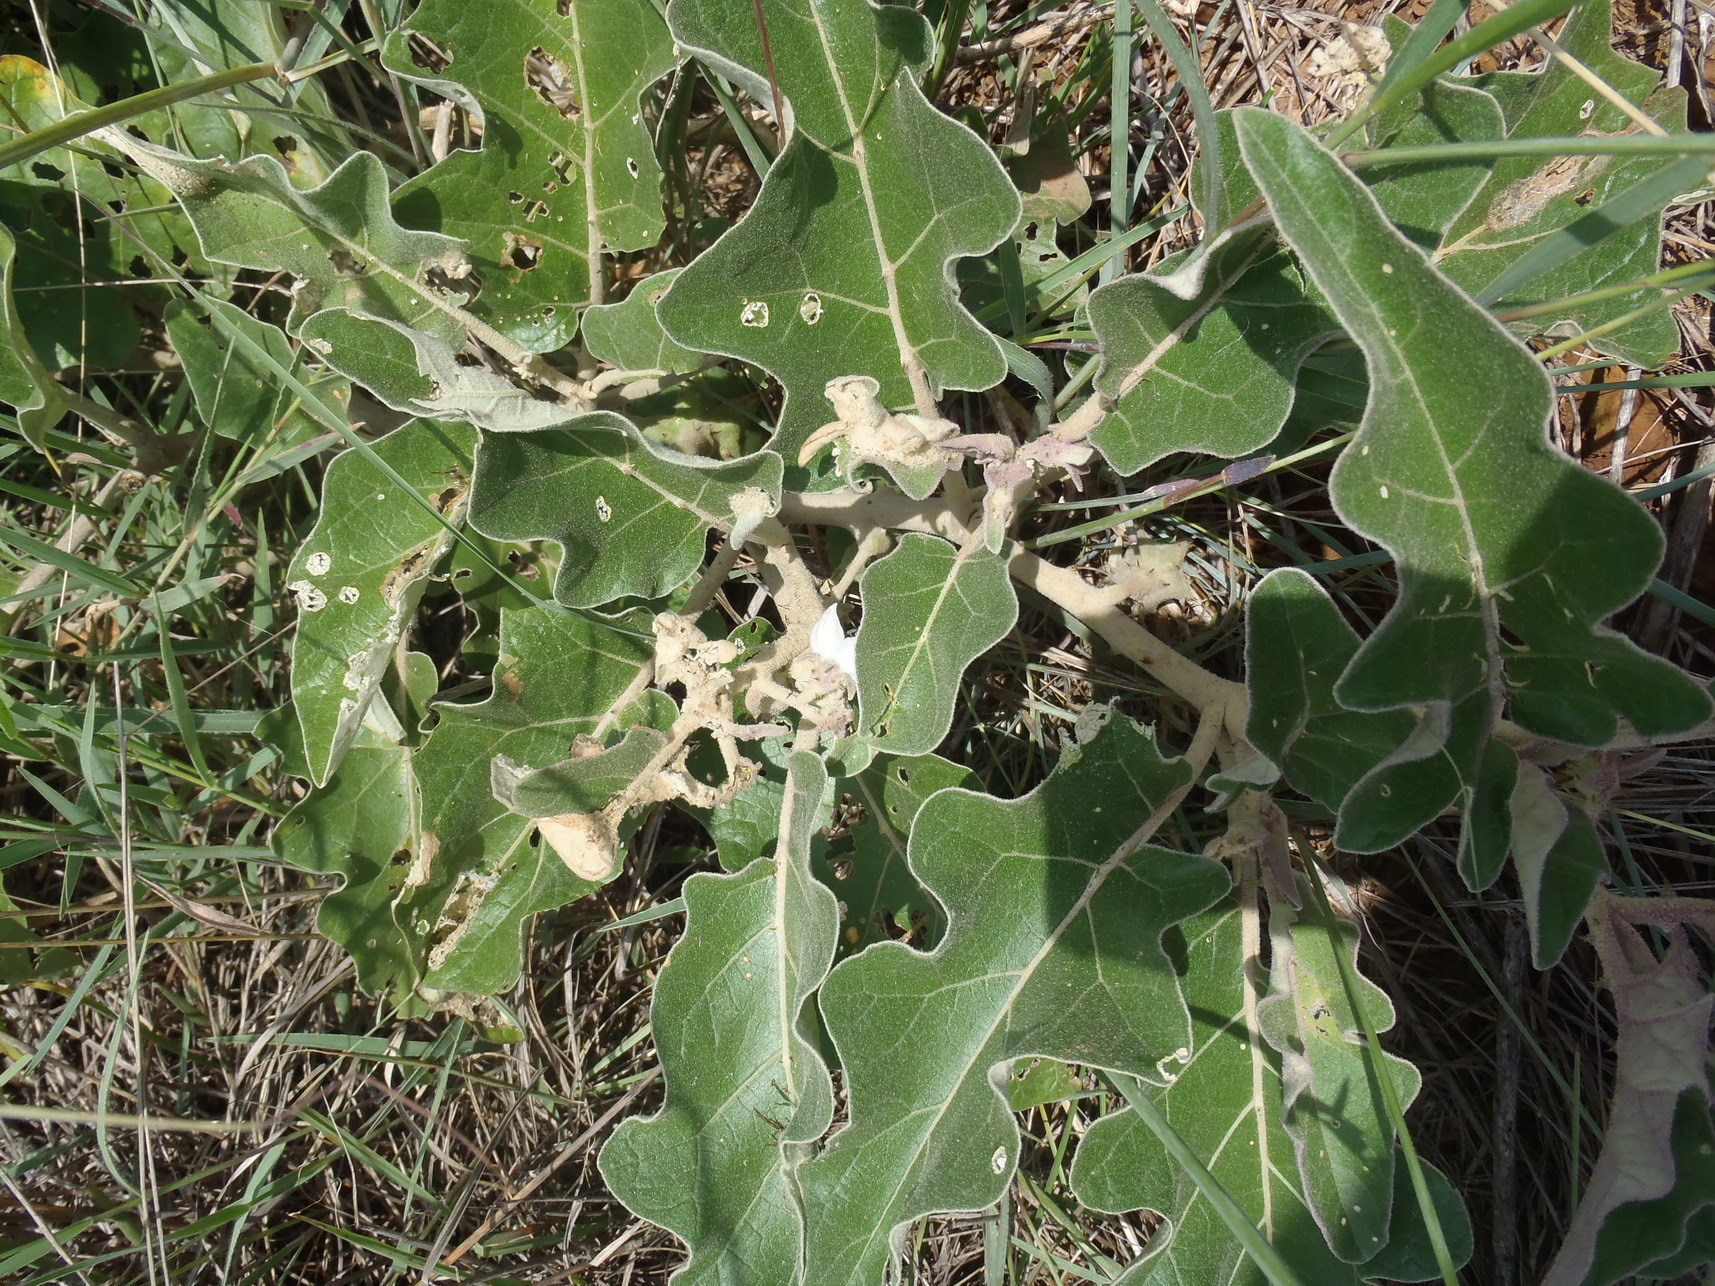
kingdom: Plantae
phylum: Tracheophyta
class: Magnoliopsida
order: Solanales
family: Solanaceae
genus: Solanum
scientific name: Solanum lichtensteinii
